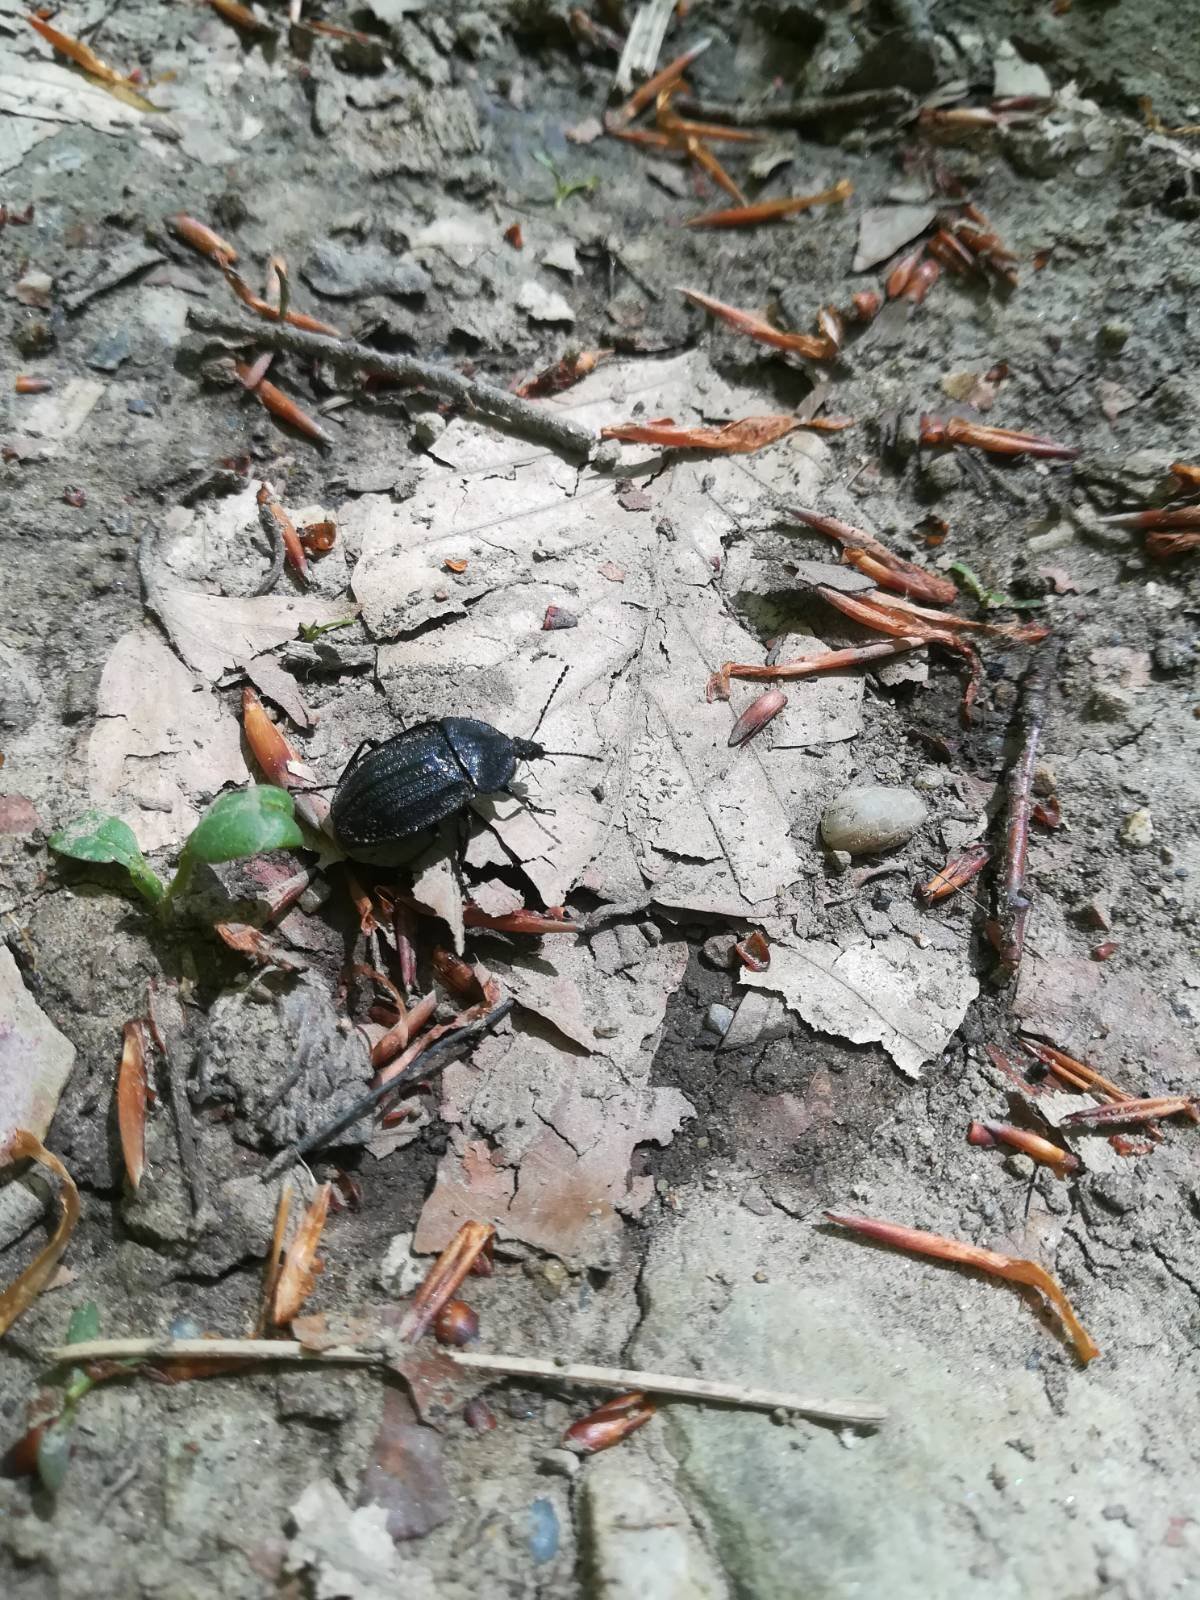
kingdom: Animalia
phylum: Arthropoda
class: Insecta
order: Coleoptera
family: Staphylinidae
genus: Silpha
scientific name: Silpha atrata
